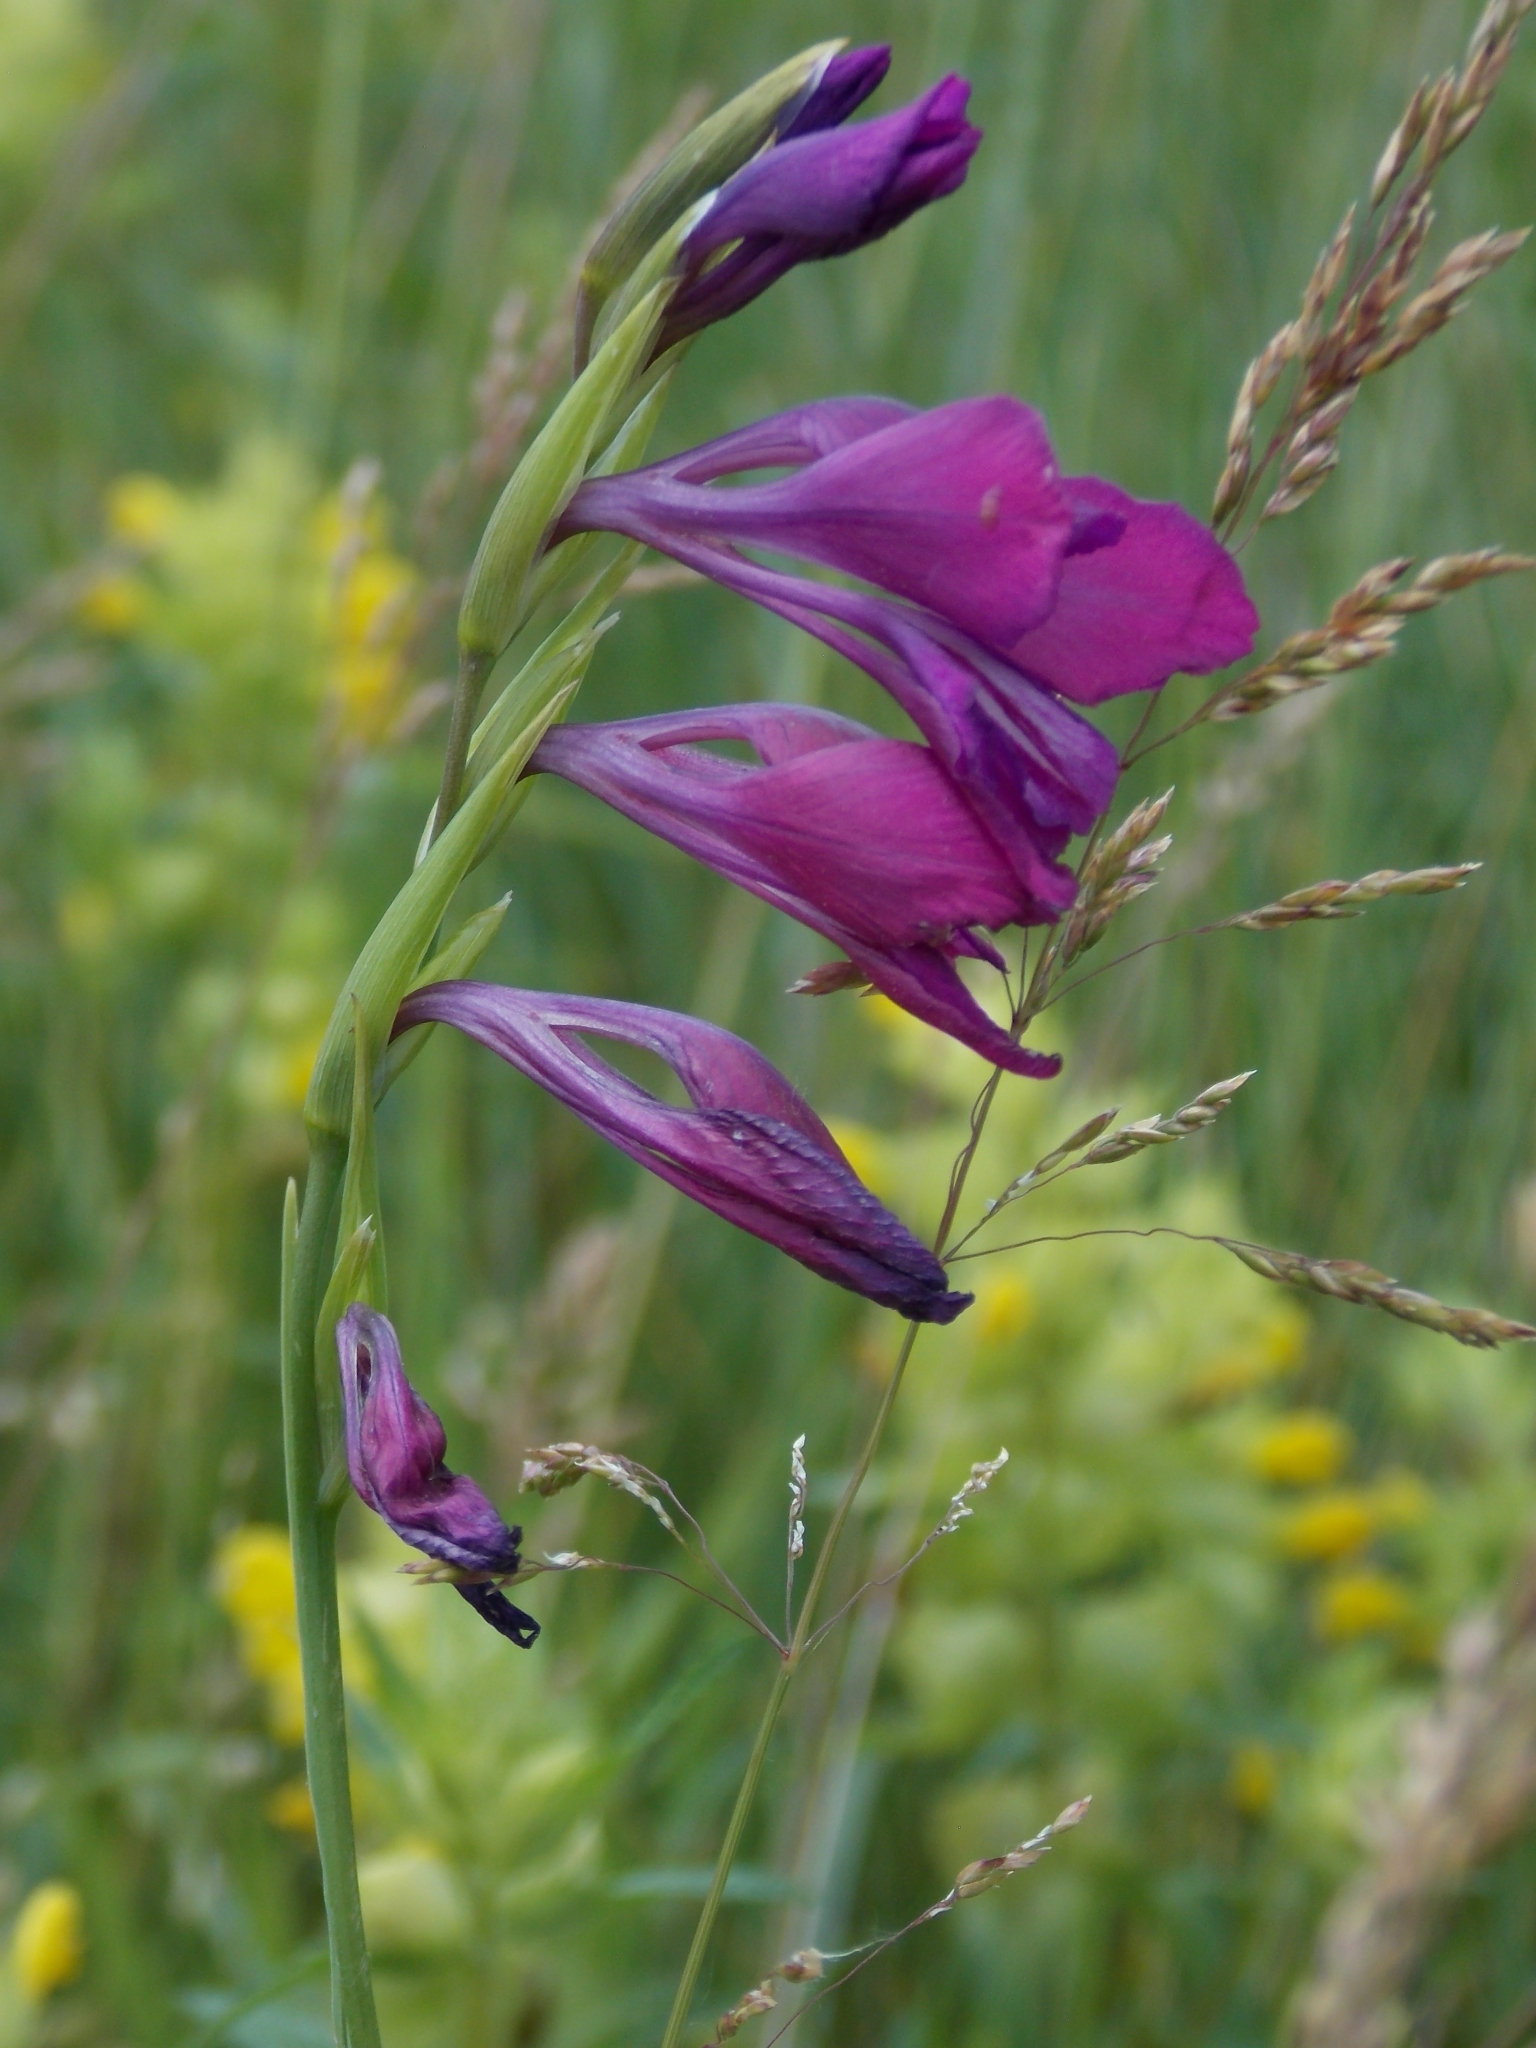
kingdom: Plantae
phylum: Tracheophyta
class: Liliopsida
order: Asparagales
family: Iridaceae
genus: Gladiolus
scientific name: Gladiolus tenuis
